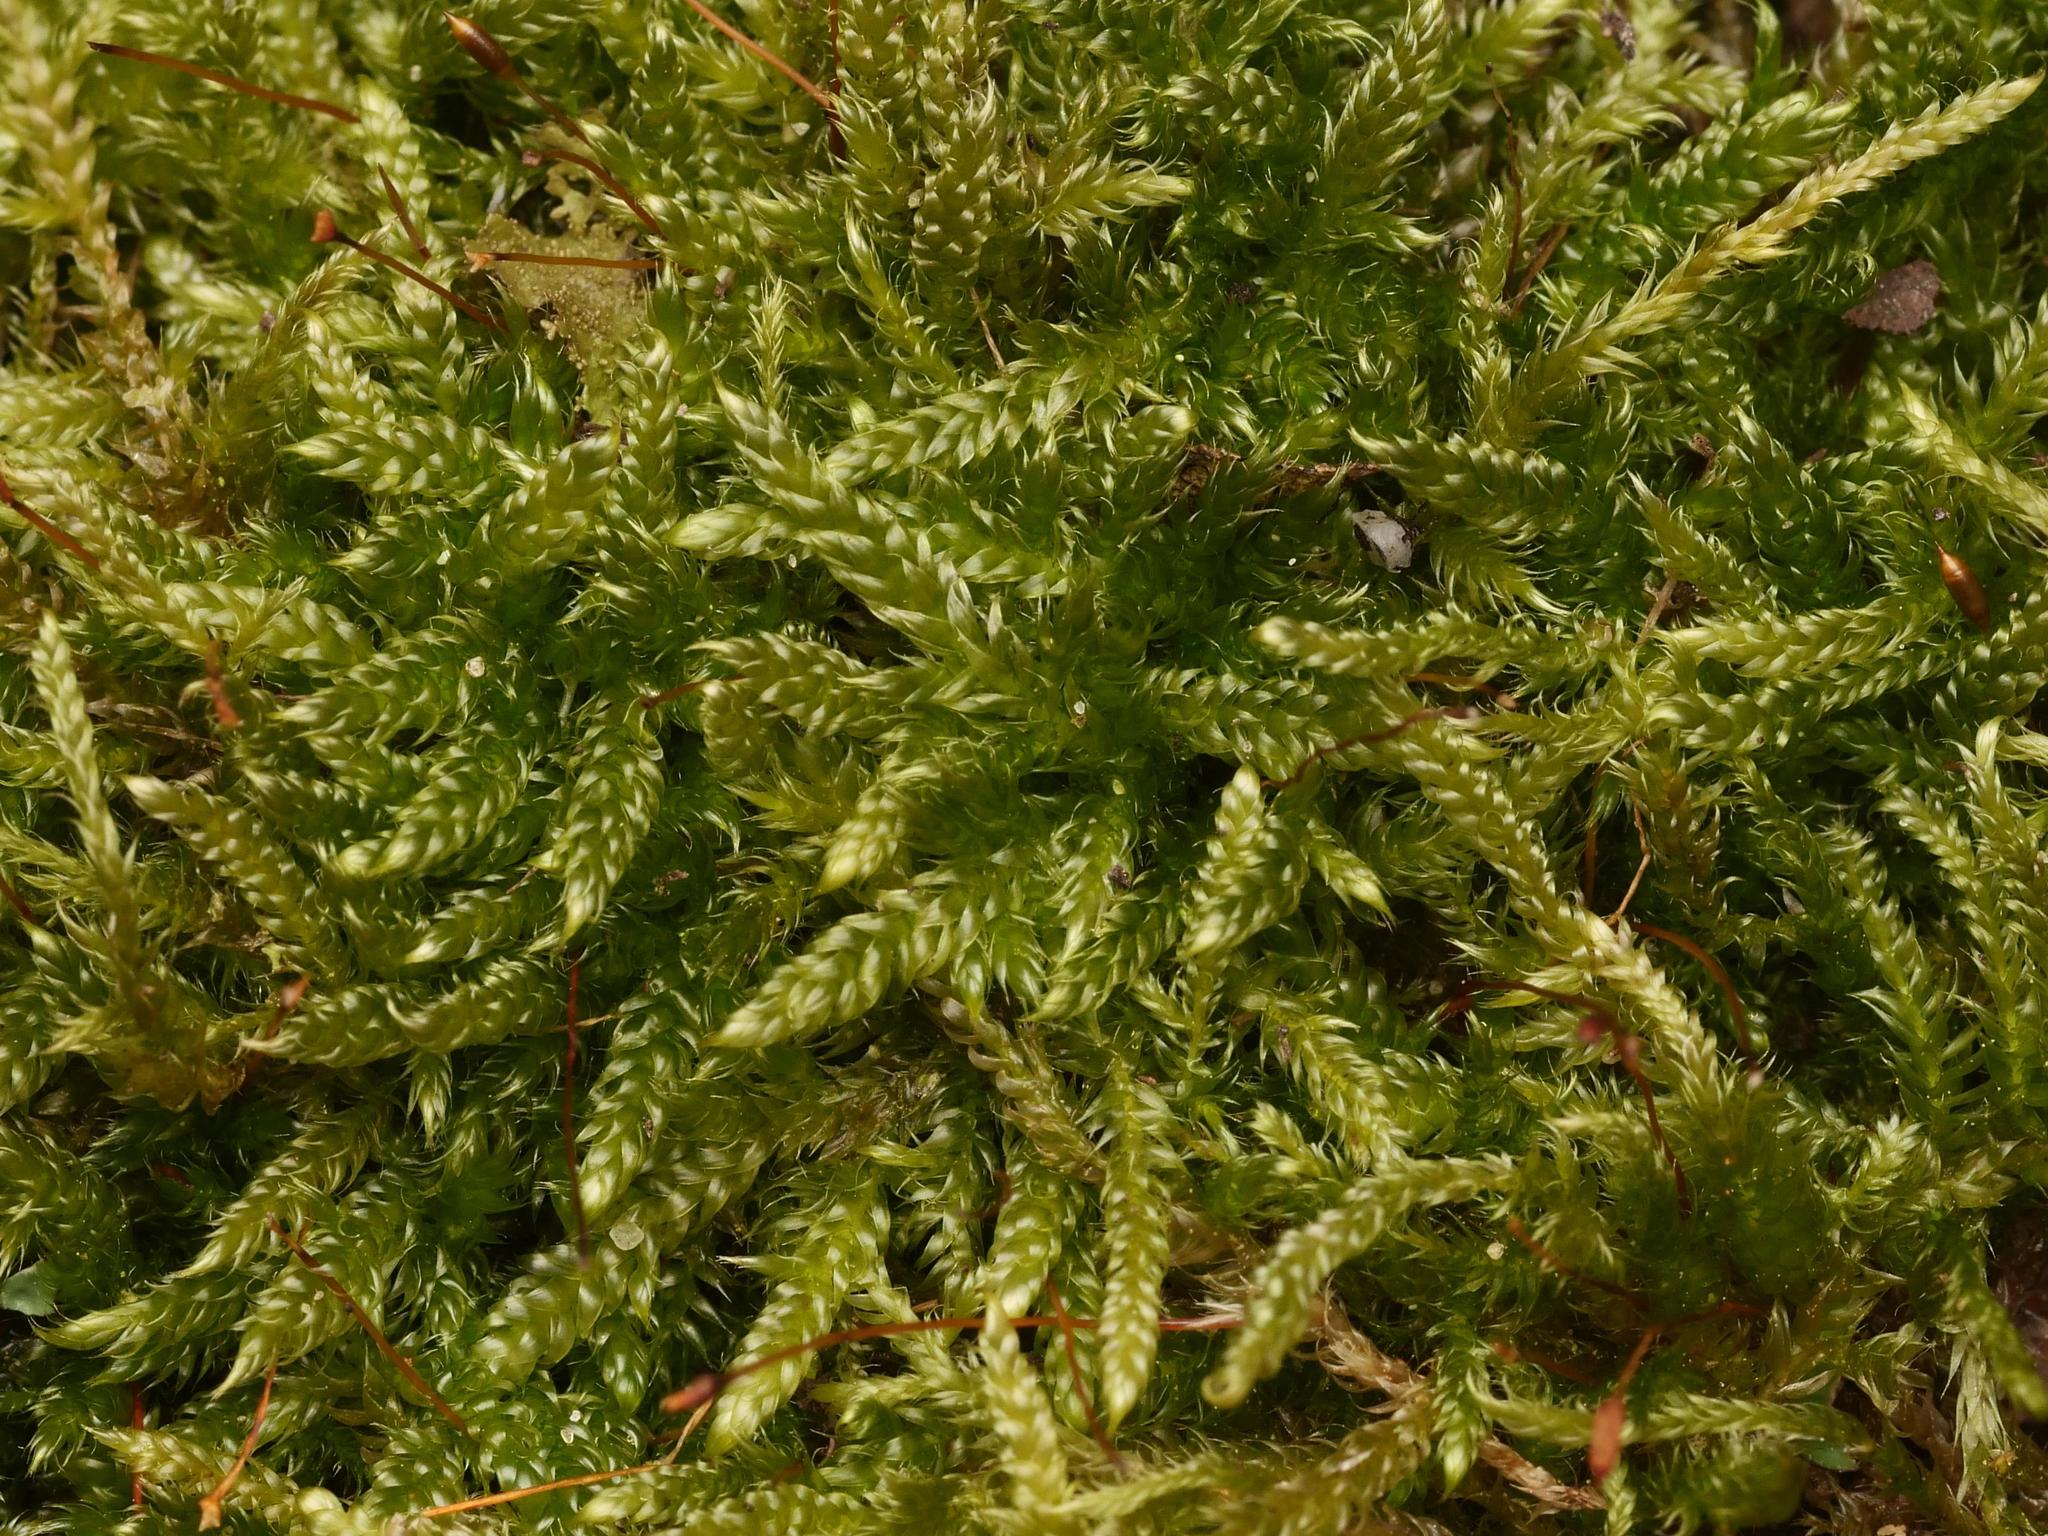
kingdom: Plantae
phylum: Bryophyta
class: Bryopsida
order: Hypnales
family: Hypnaceae
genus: Hypnum
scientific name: Hypnum cupressiforme
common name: Cypress-leaved plait-moss
